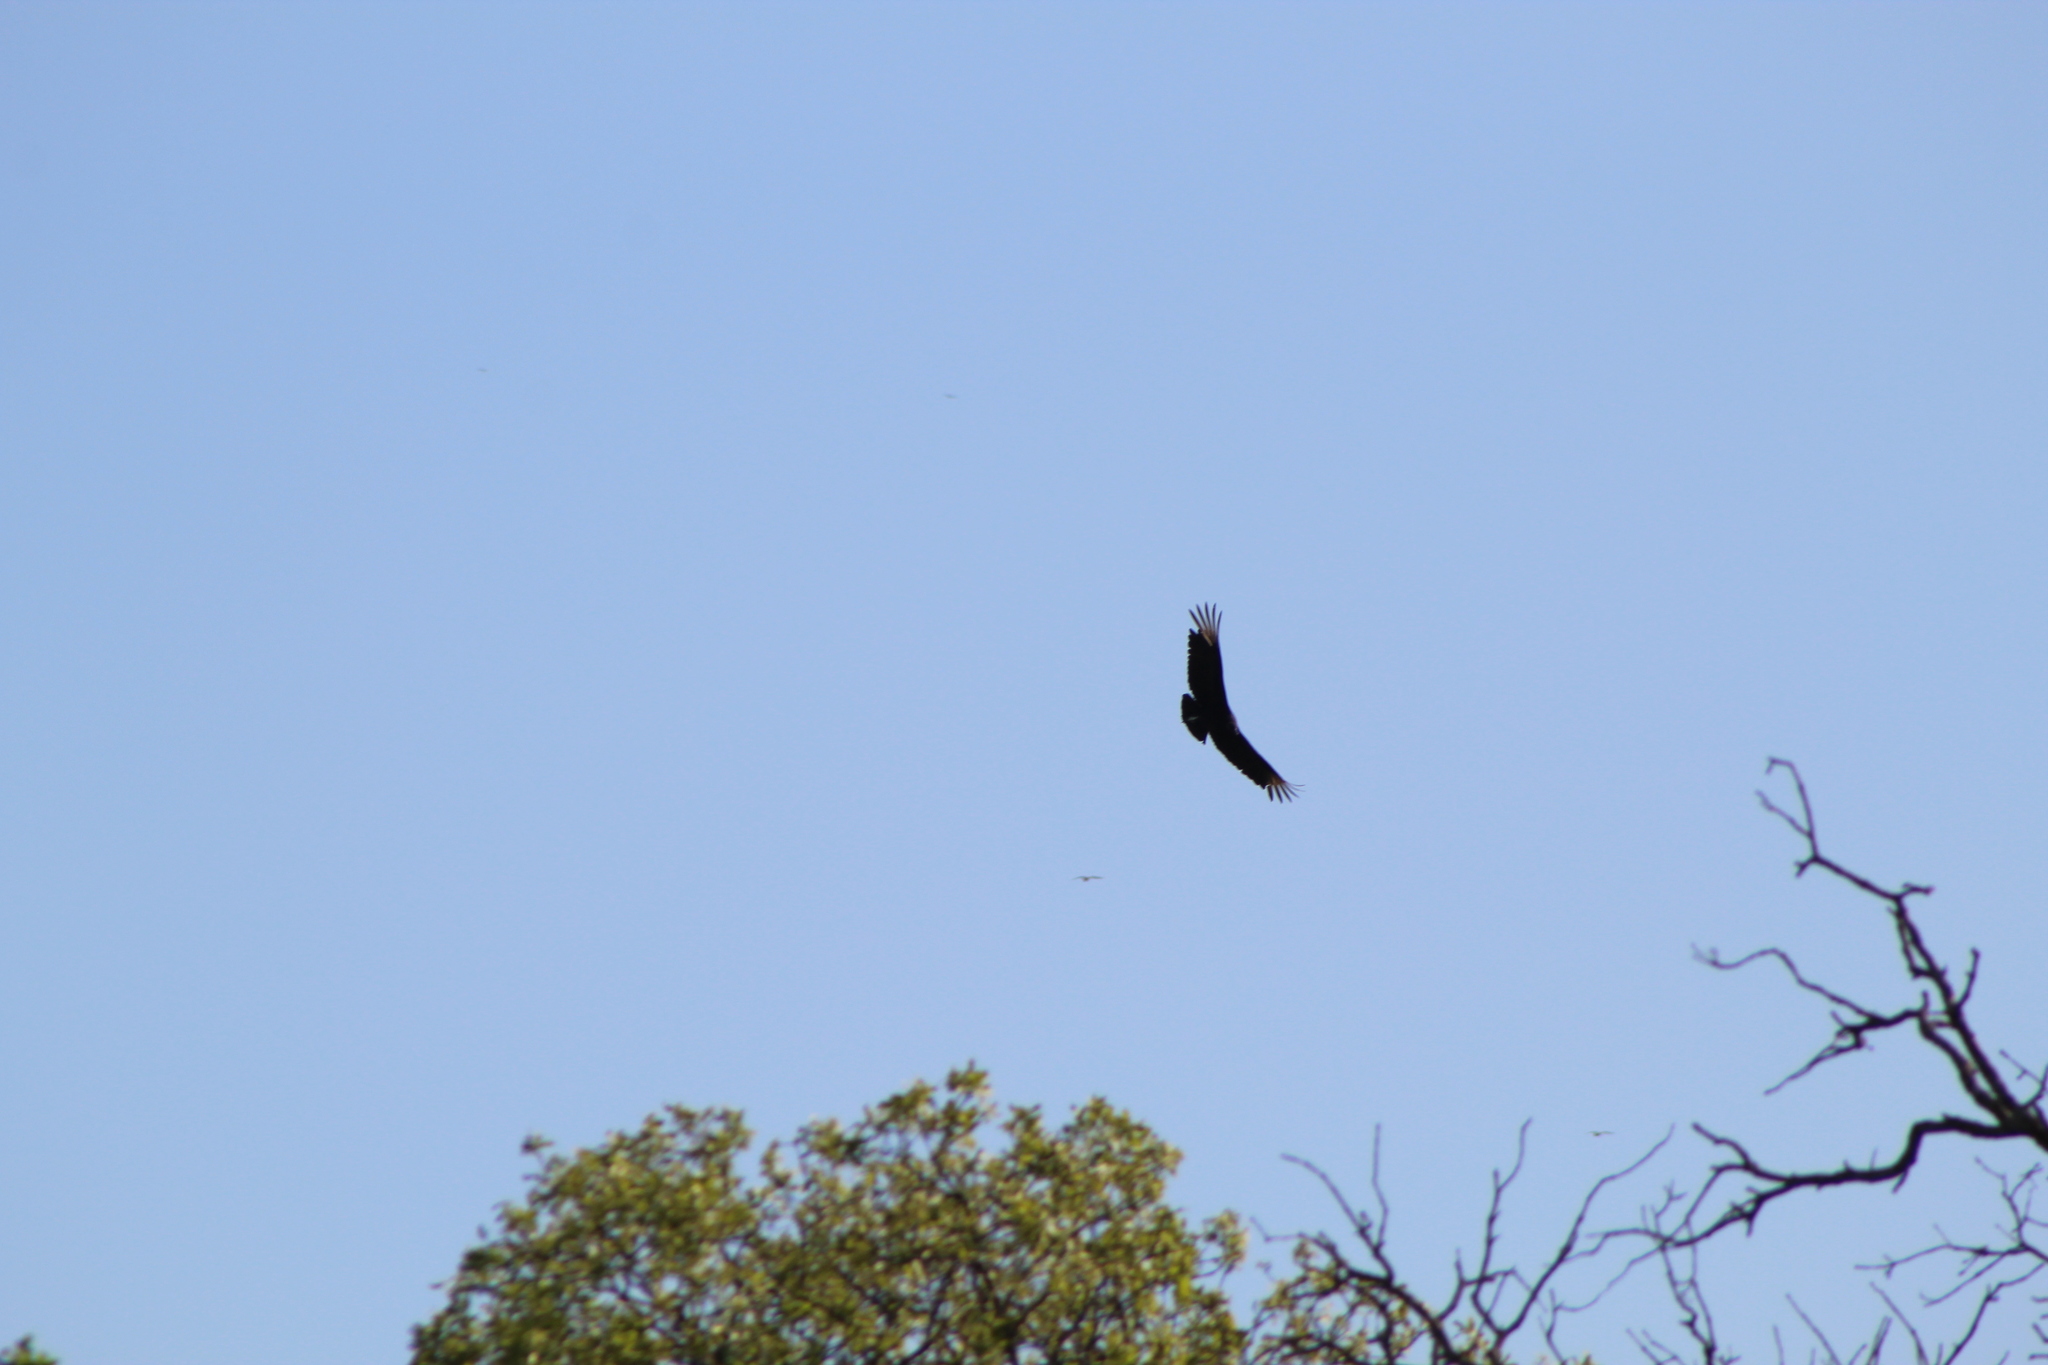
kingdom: Animalia
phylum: Chordata
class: Aves
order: Accipitriformes
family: Cathartidae
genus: Coragyps
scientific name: Coragyps atratus
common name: Black vulture
